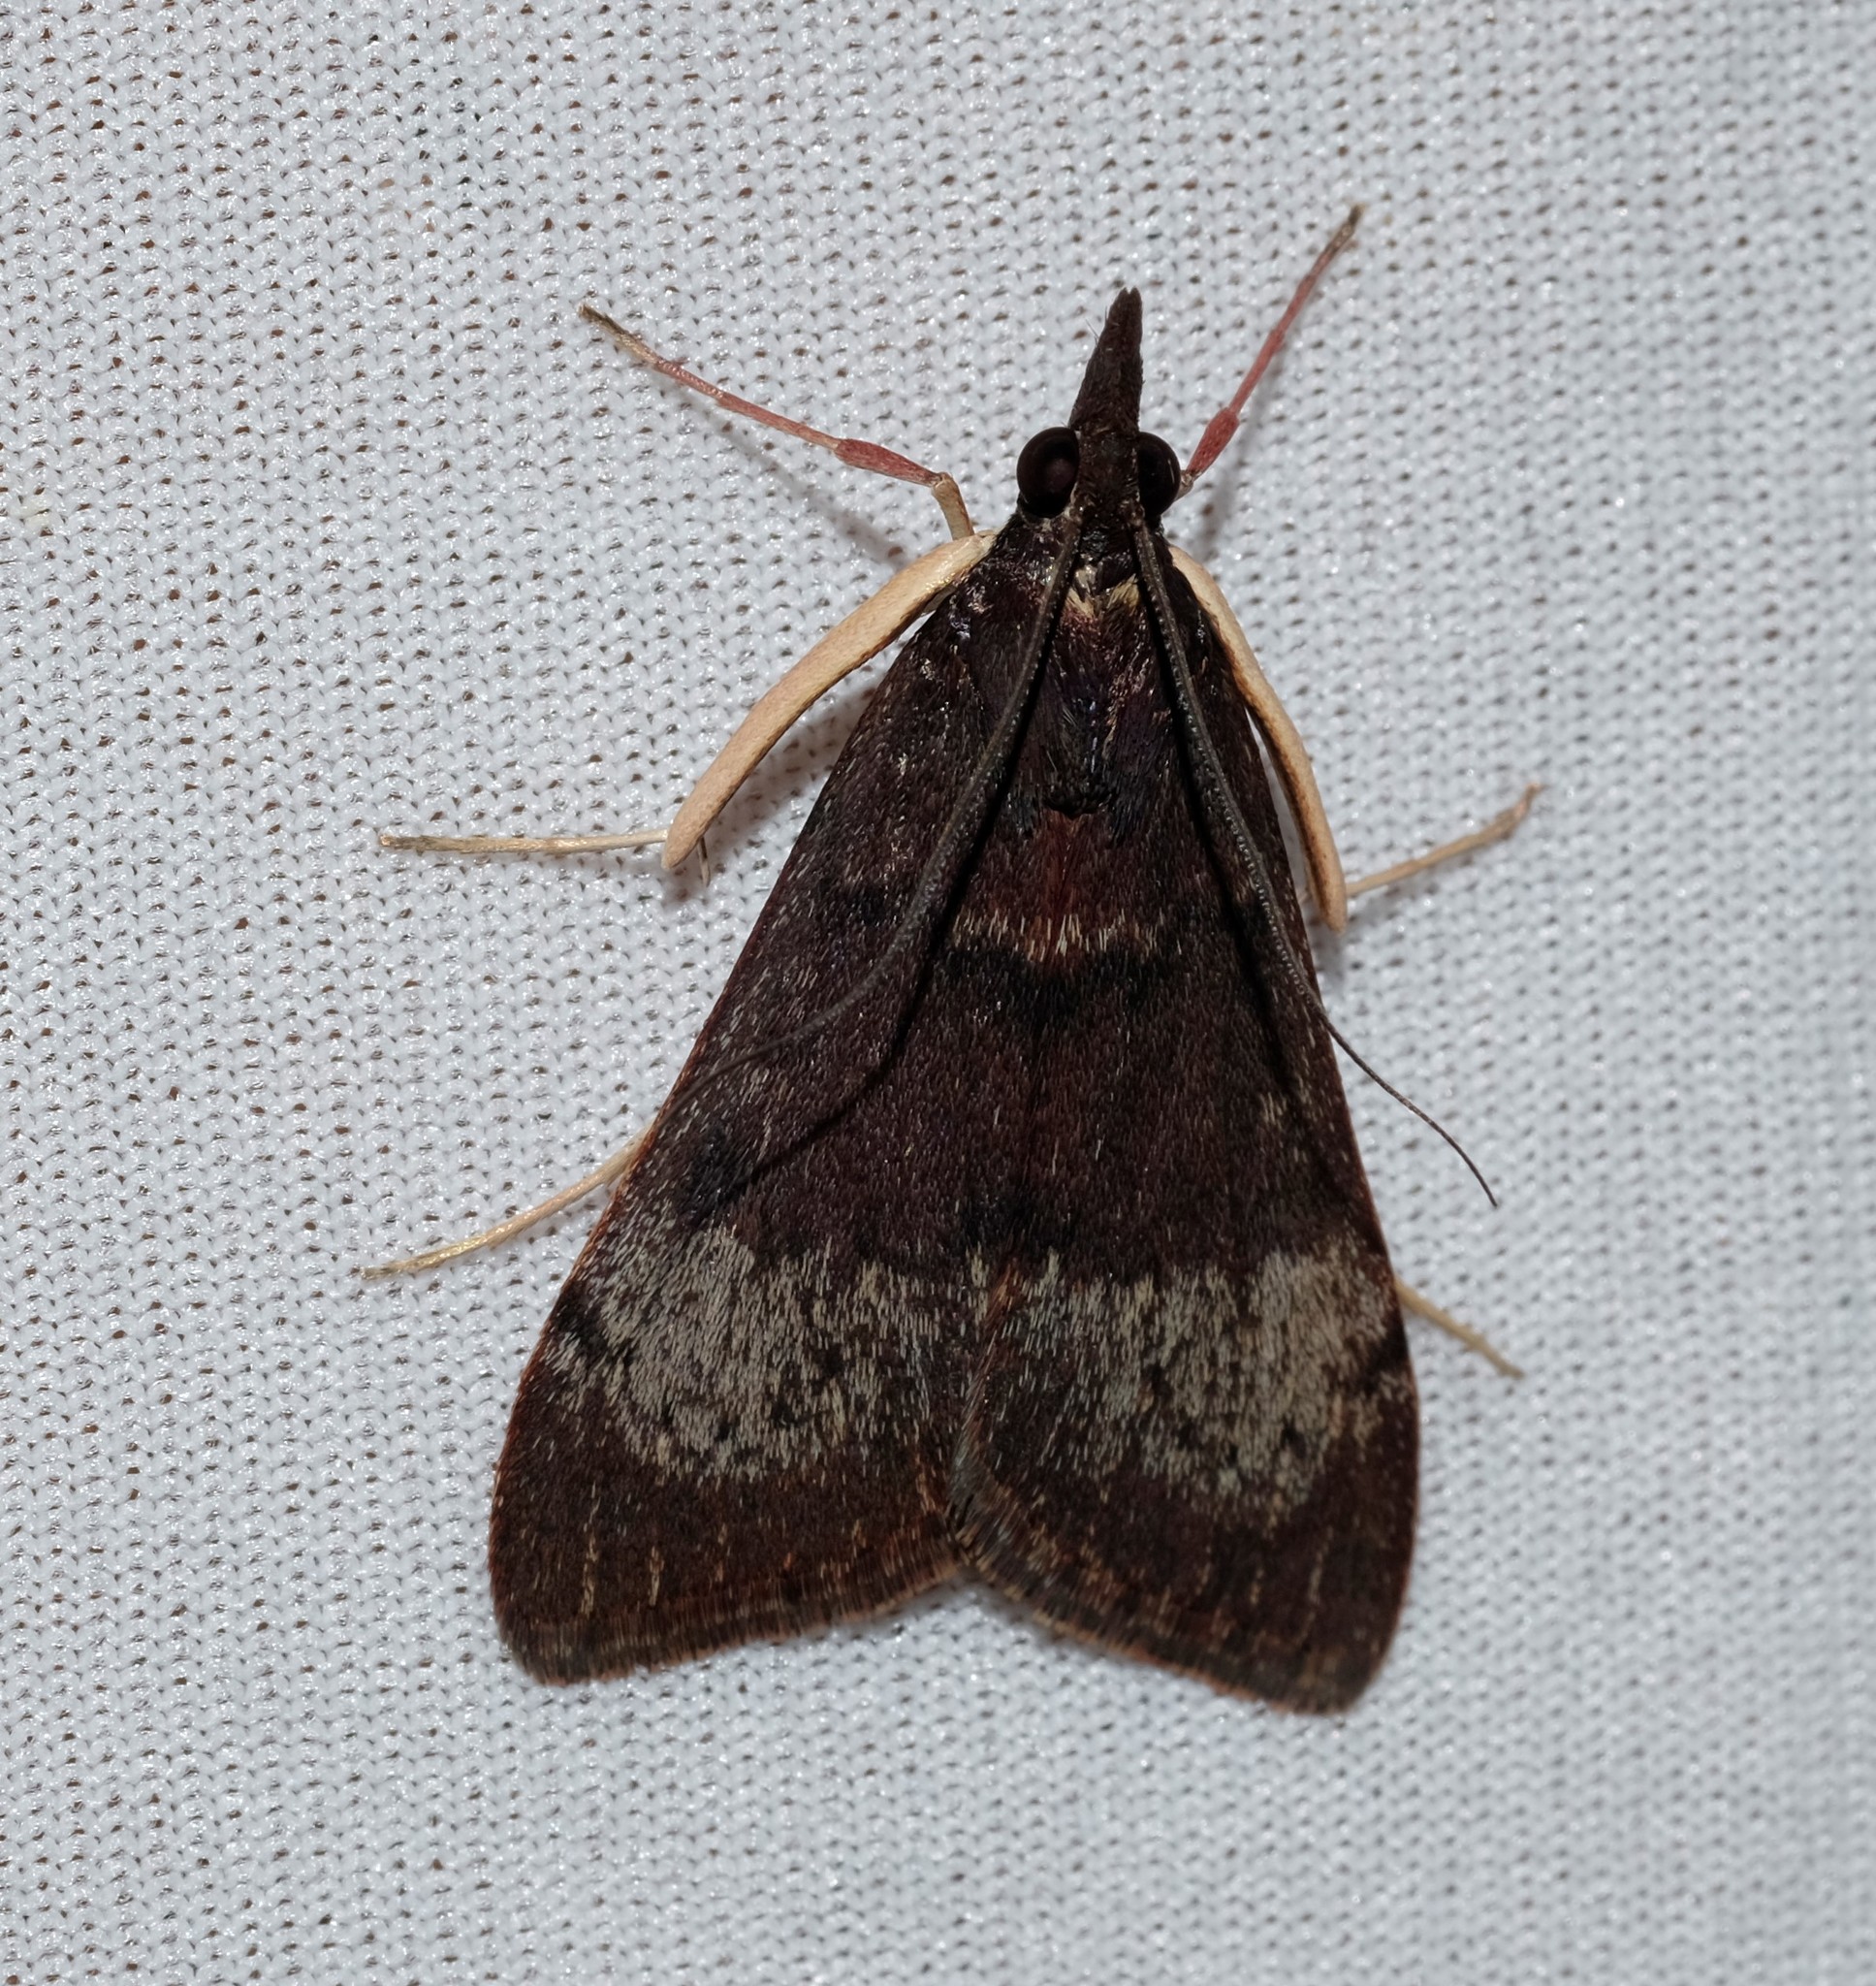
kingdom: Animalia
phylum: Arthropoda
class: Insecta
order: Lepidoptera
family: Crambidae
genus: Uresiphita
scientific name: Uresiphita ornithopteralis
